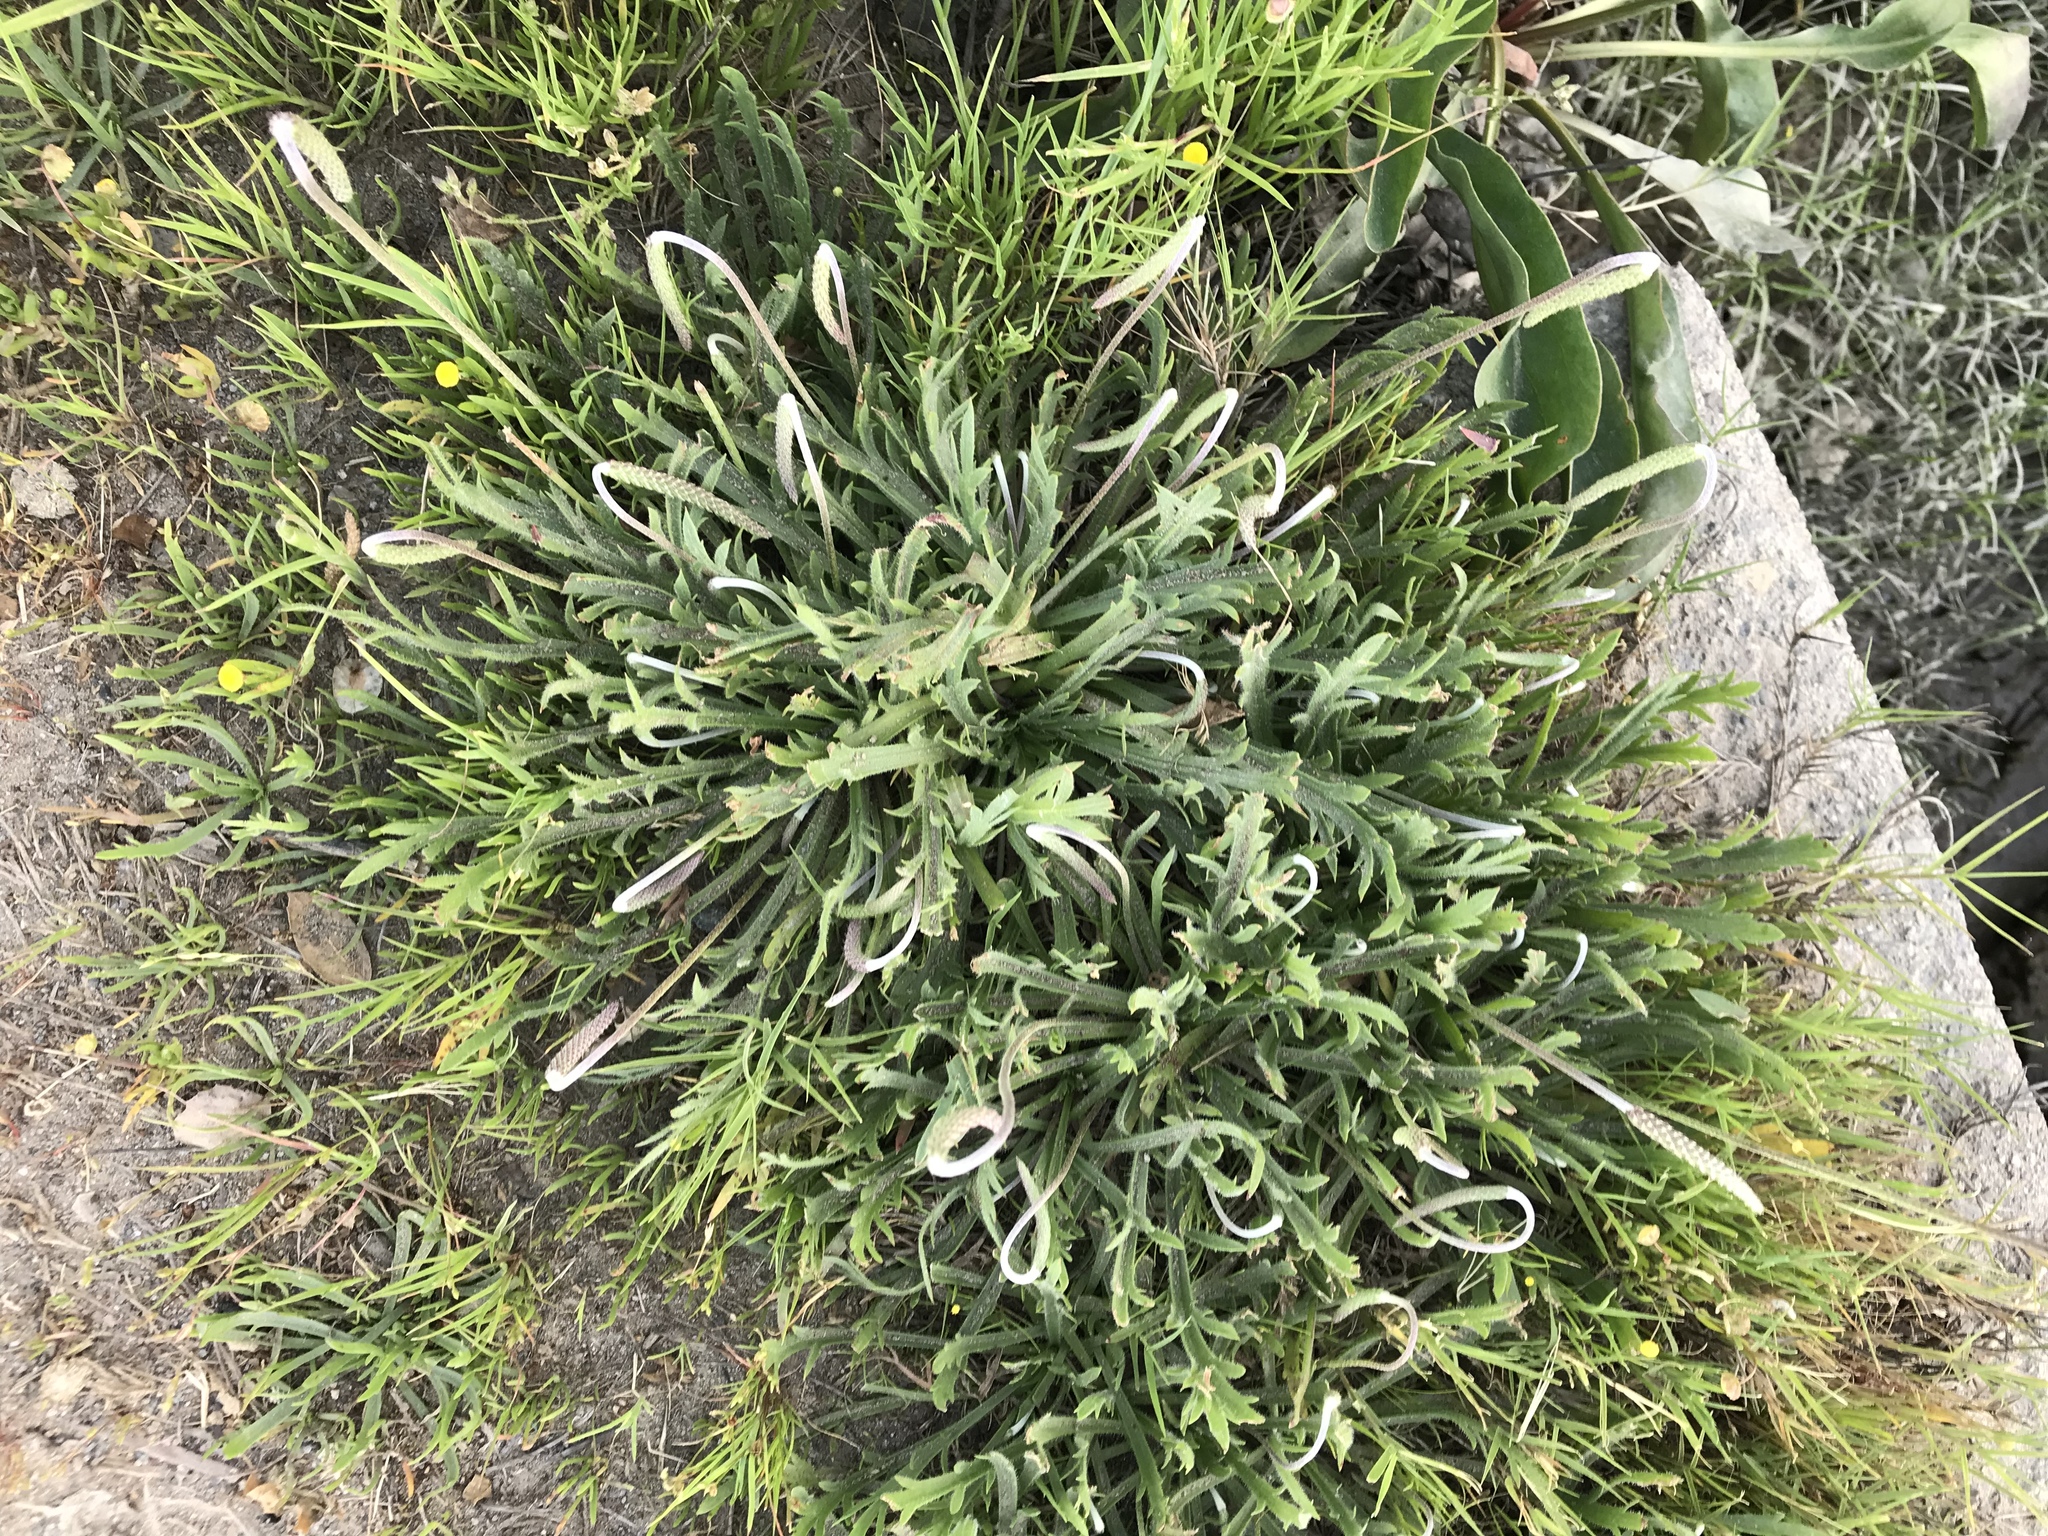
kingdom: Plantae
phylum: Tracheophyta
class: Magnoliopsida
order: Lamiales
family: Plantaginaceae
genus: Plantago
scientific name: Plantago coronopus
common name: Buck's-horn plantain
